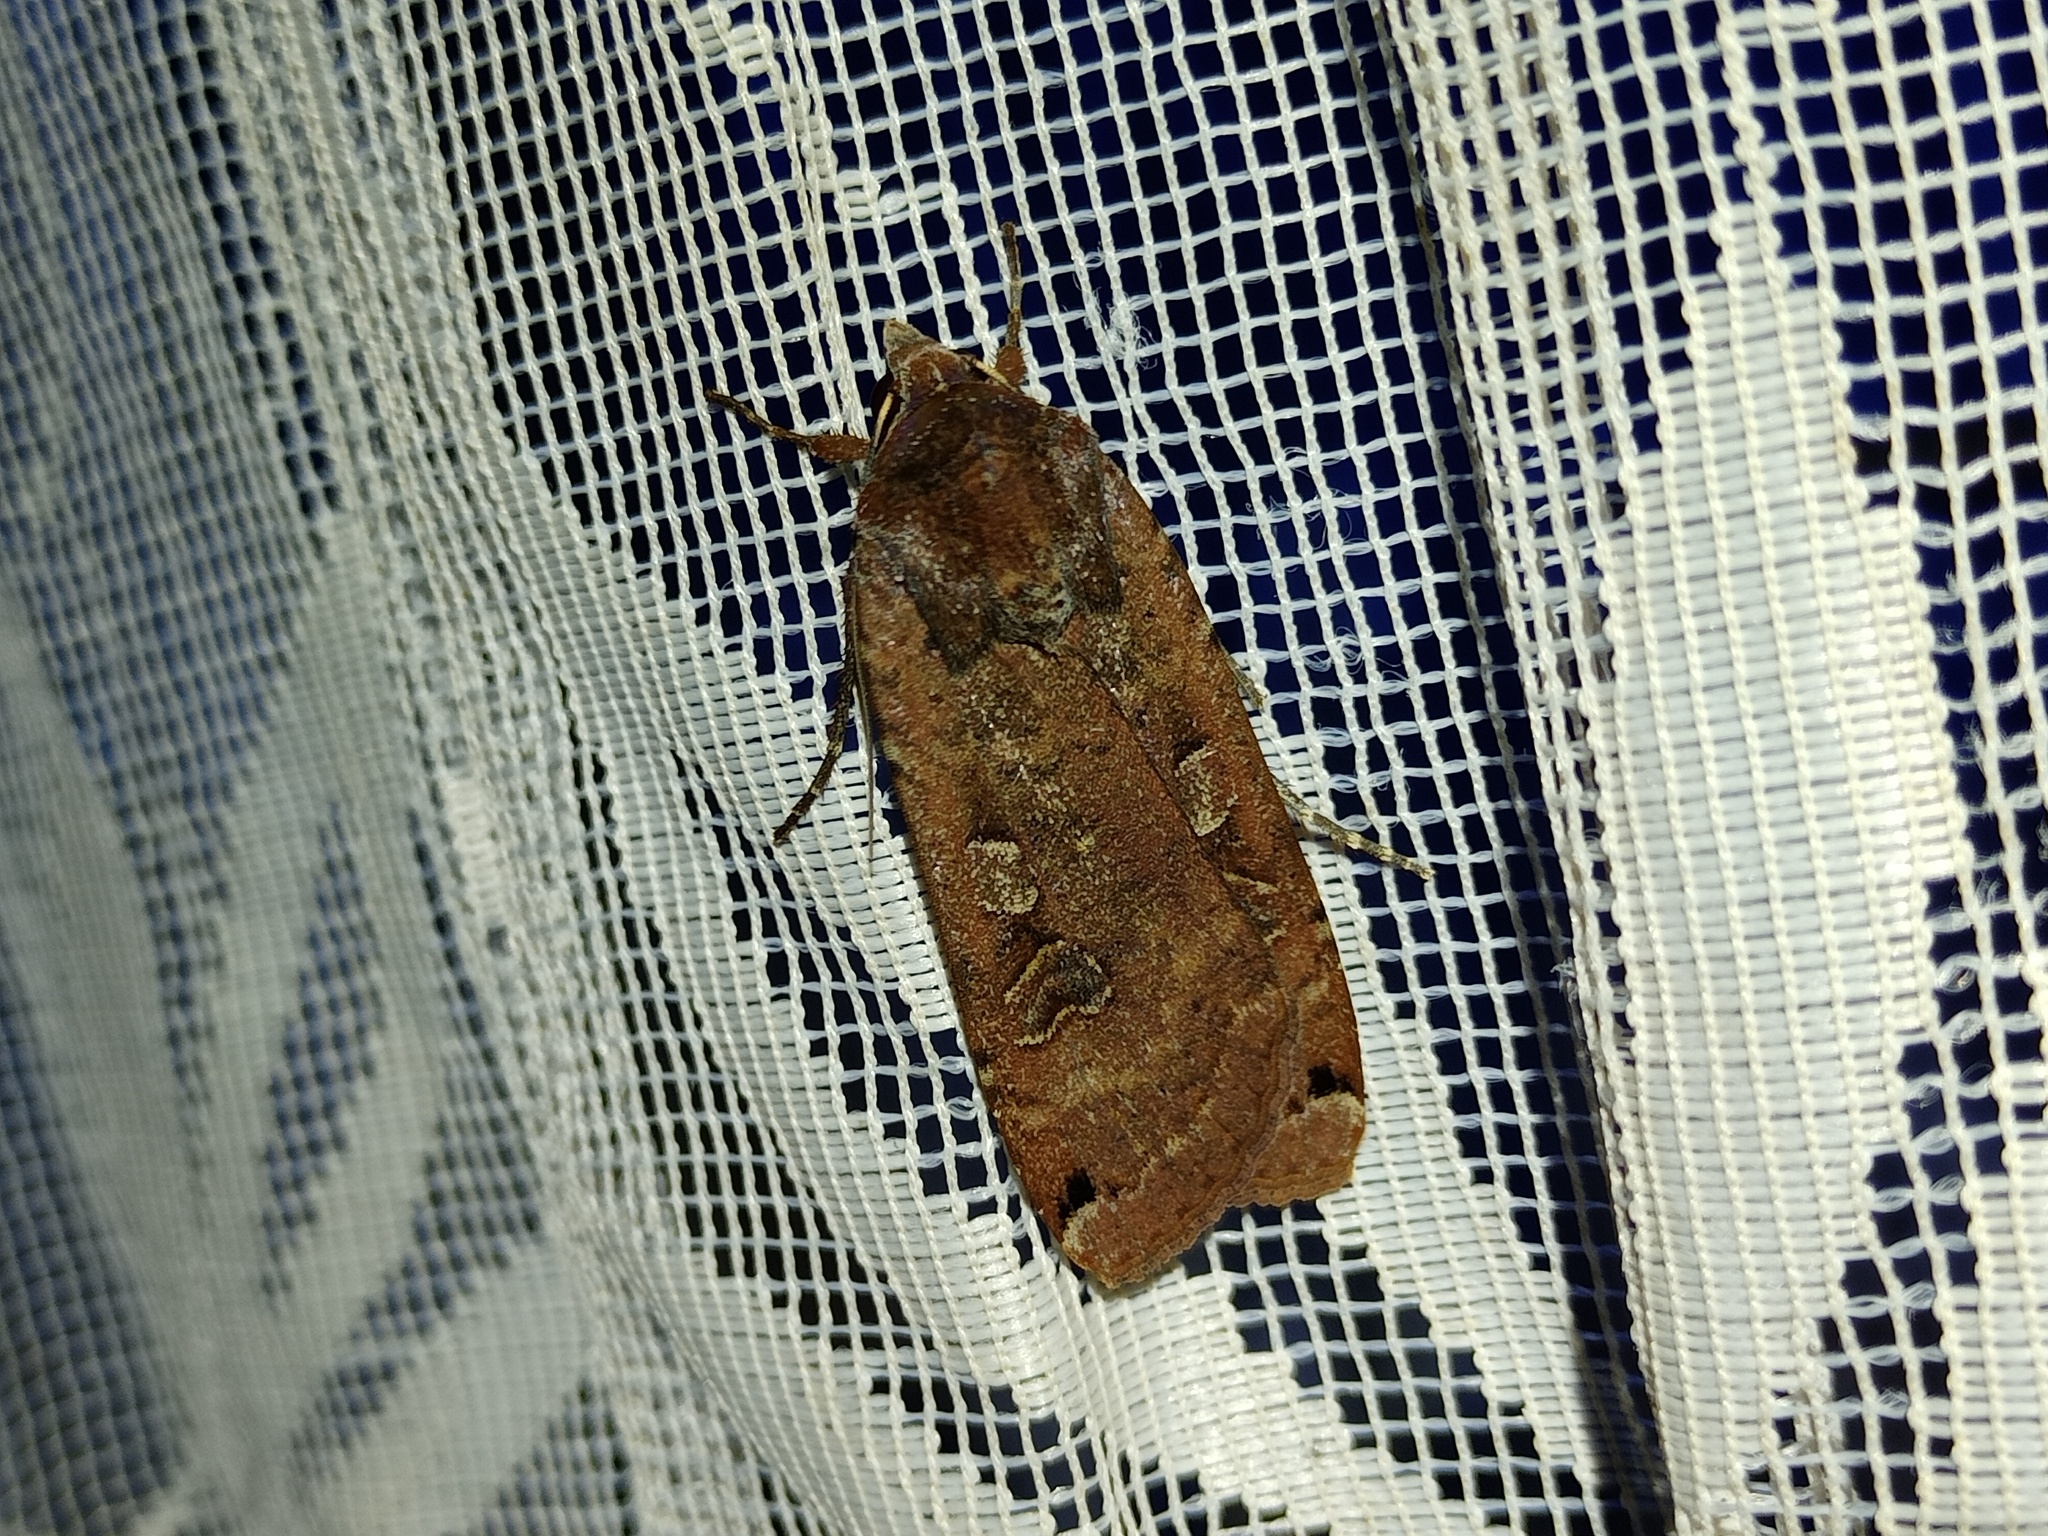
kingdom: Animalia
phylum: Arthropoda
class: Insecta
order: Lepidoptera
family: Noctuidae
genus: Noctua
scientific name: Noctua pronuba
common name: Large yellow underwing
